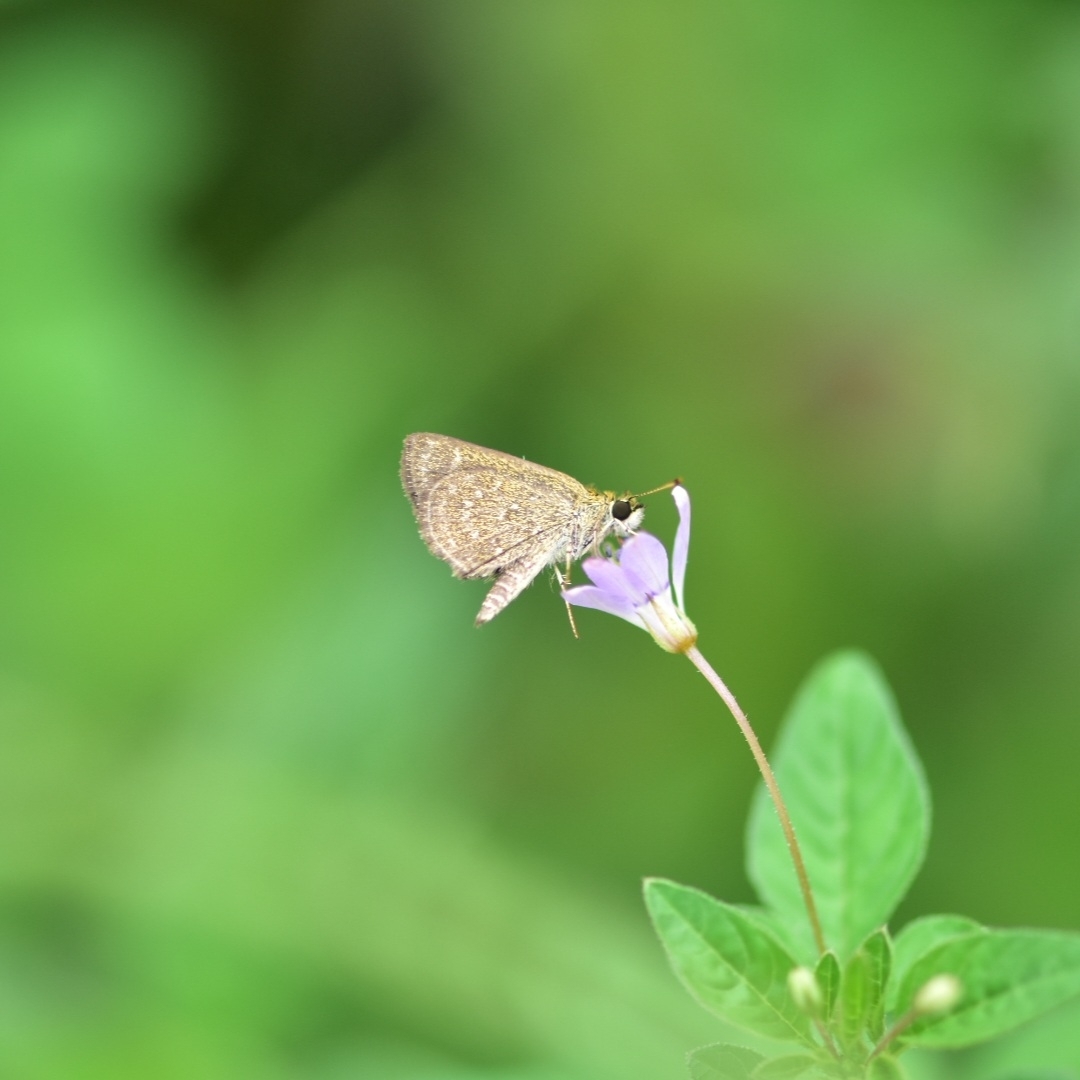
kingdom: Animalia
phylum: Arthropoda
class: Insecta
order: Lepidoptera
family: Hesperiidae
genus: Aeromachus
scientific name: Aeromachus pygmaeus
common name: Pygmy scrub hopper
